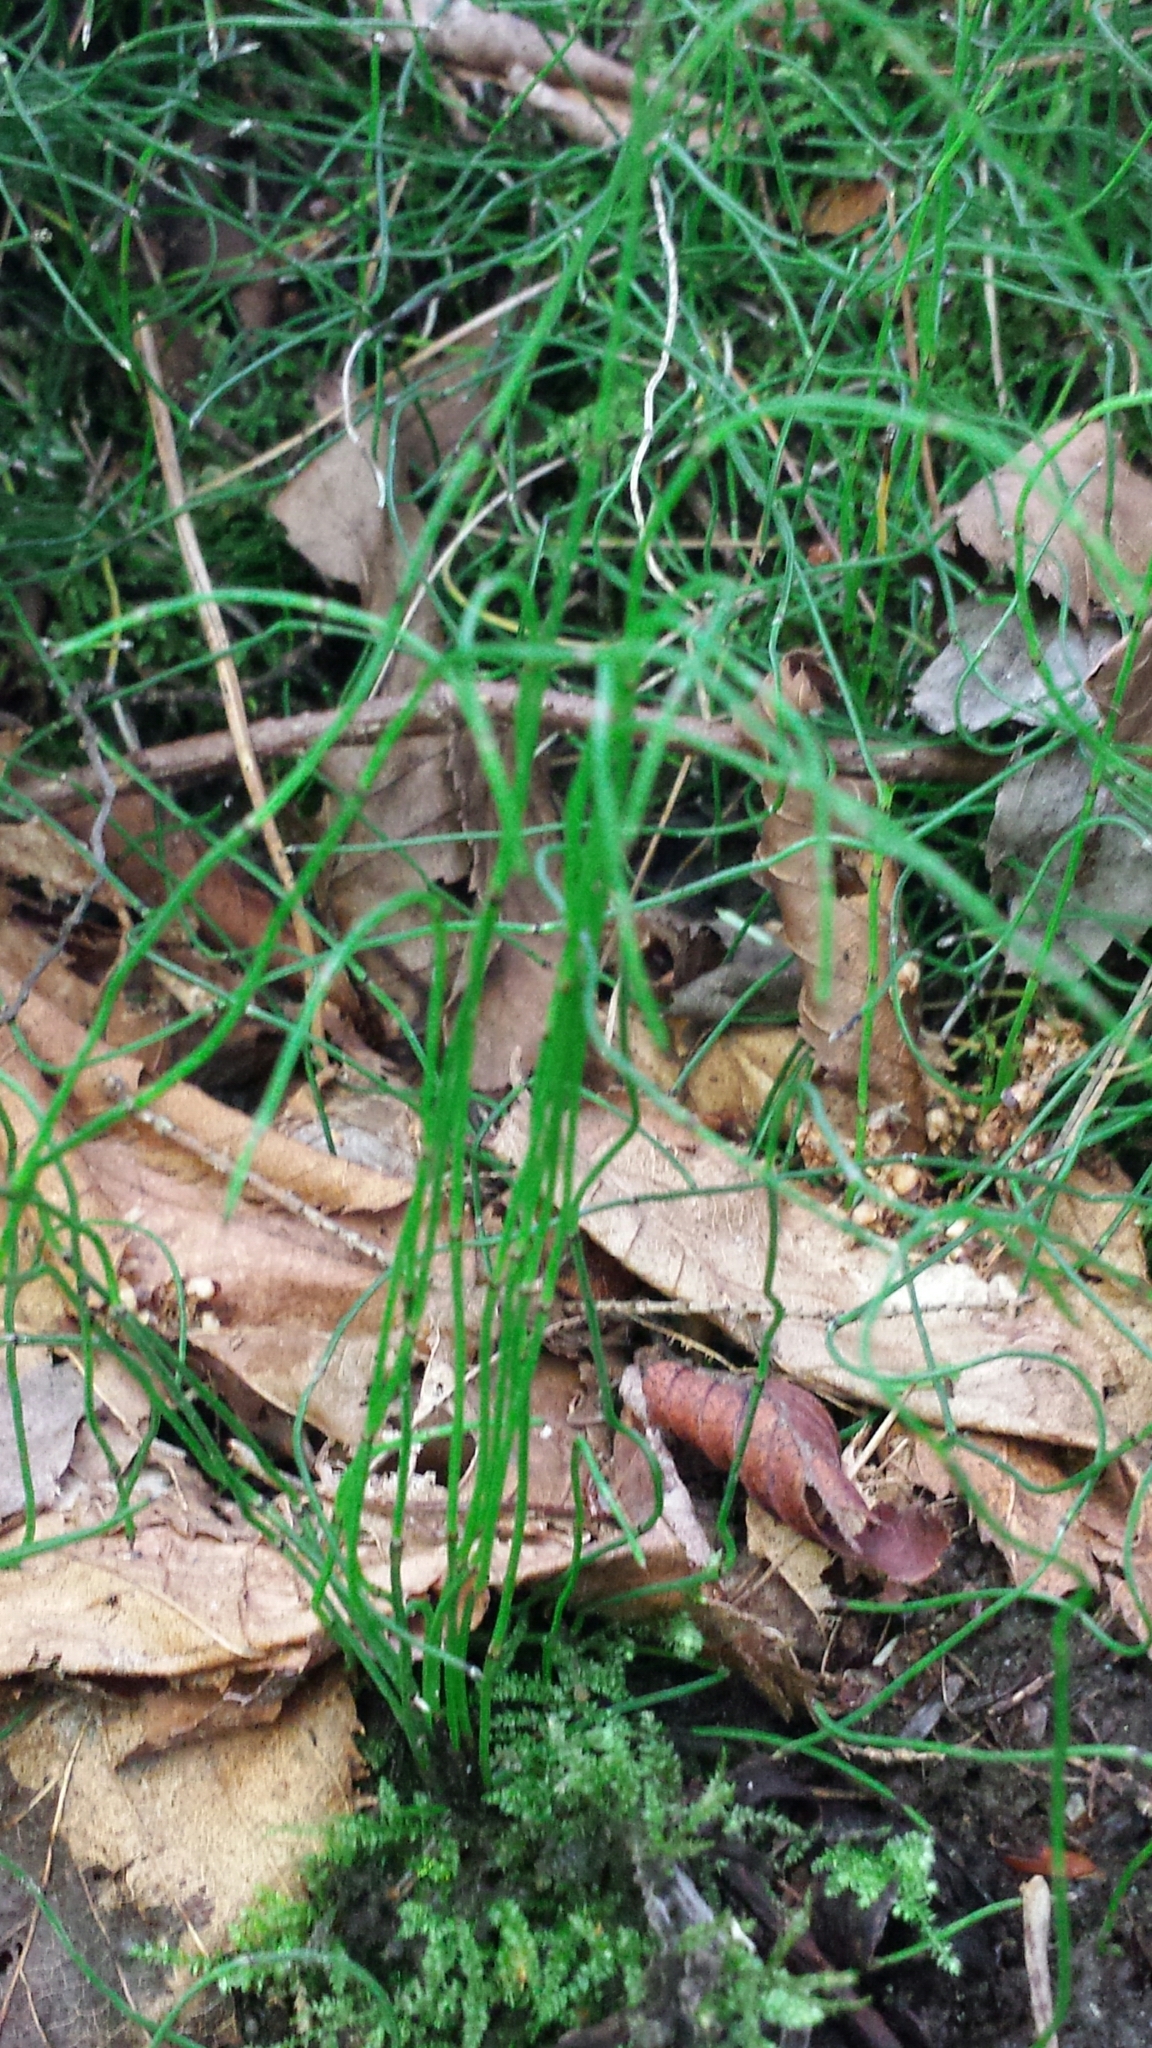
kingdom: Plantae
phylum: Tracheophyta
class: Polypodiopsida
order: Equisetales
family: Equisetaceae
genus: Equisetum
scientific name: Equisetum scirpoides
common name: Delicate horsetail
